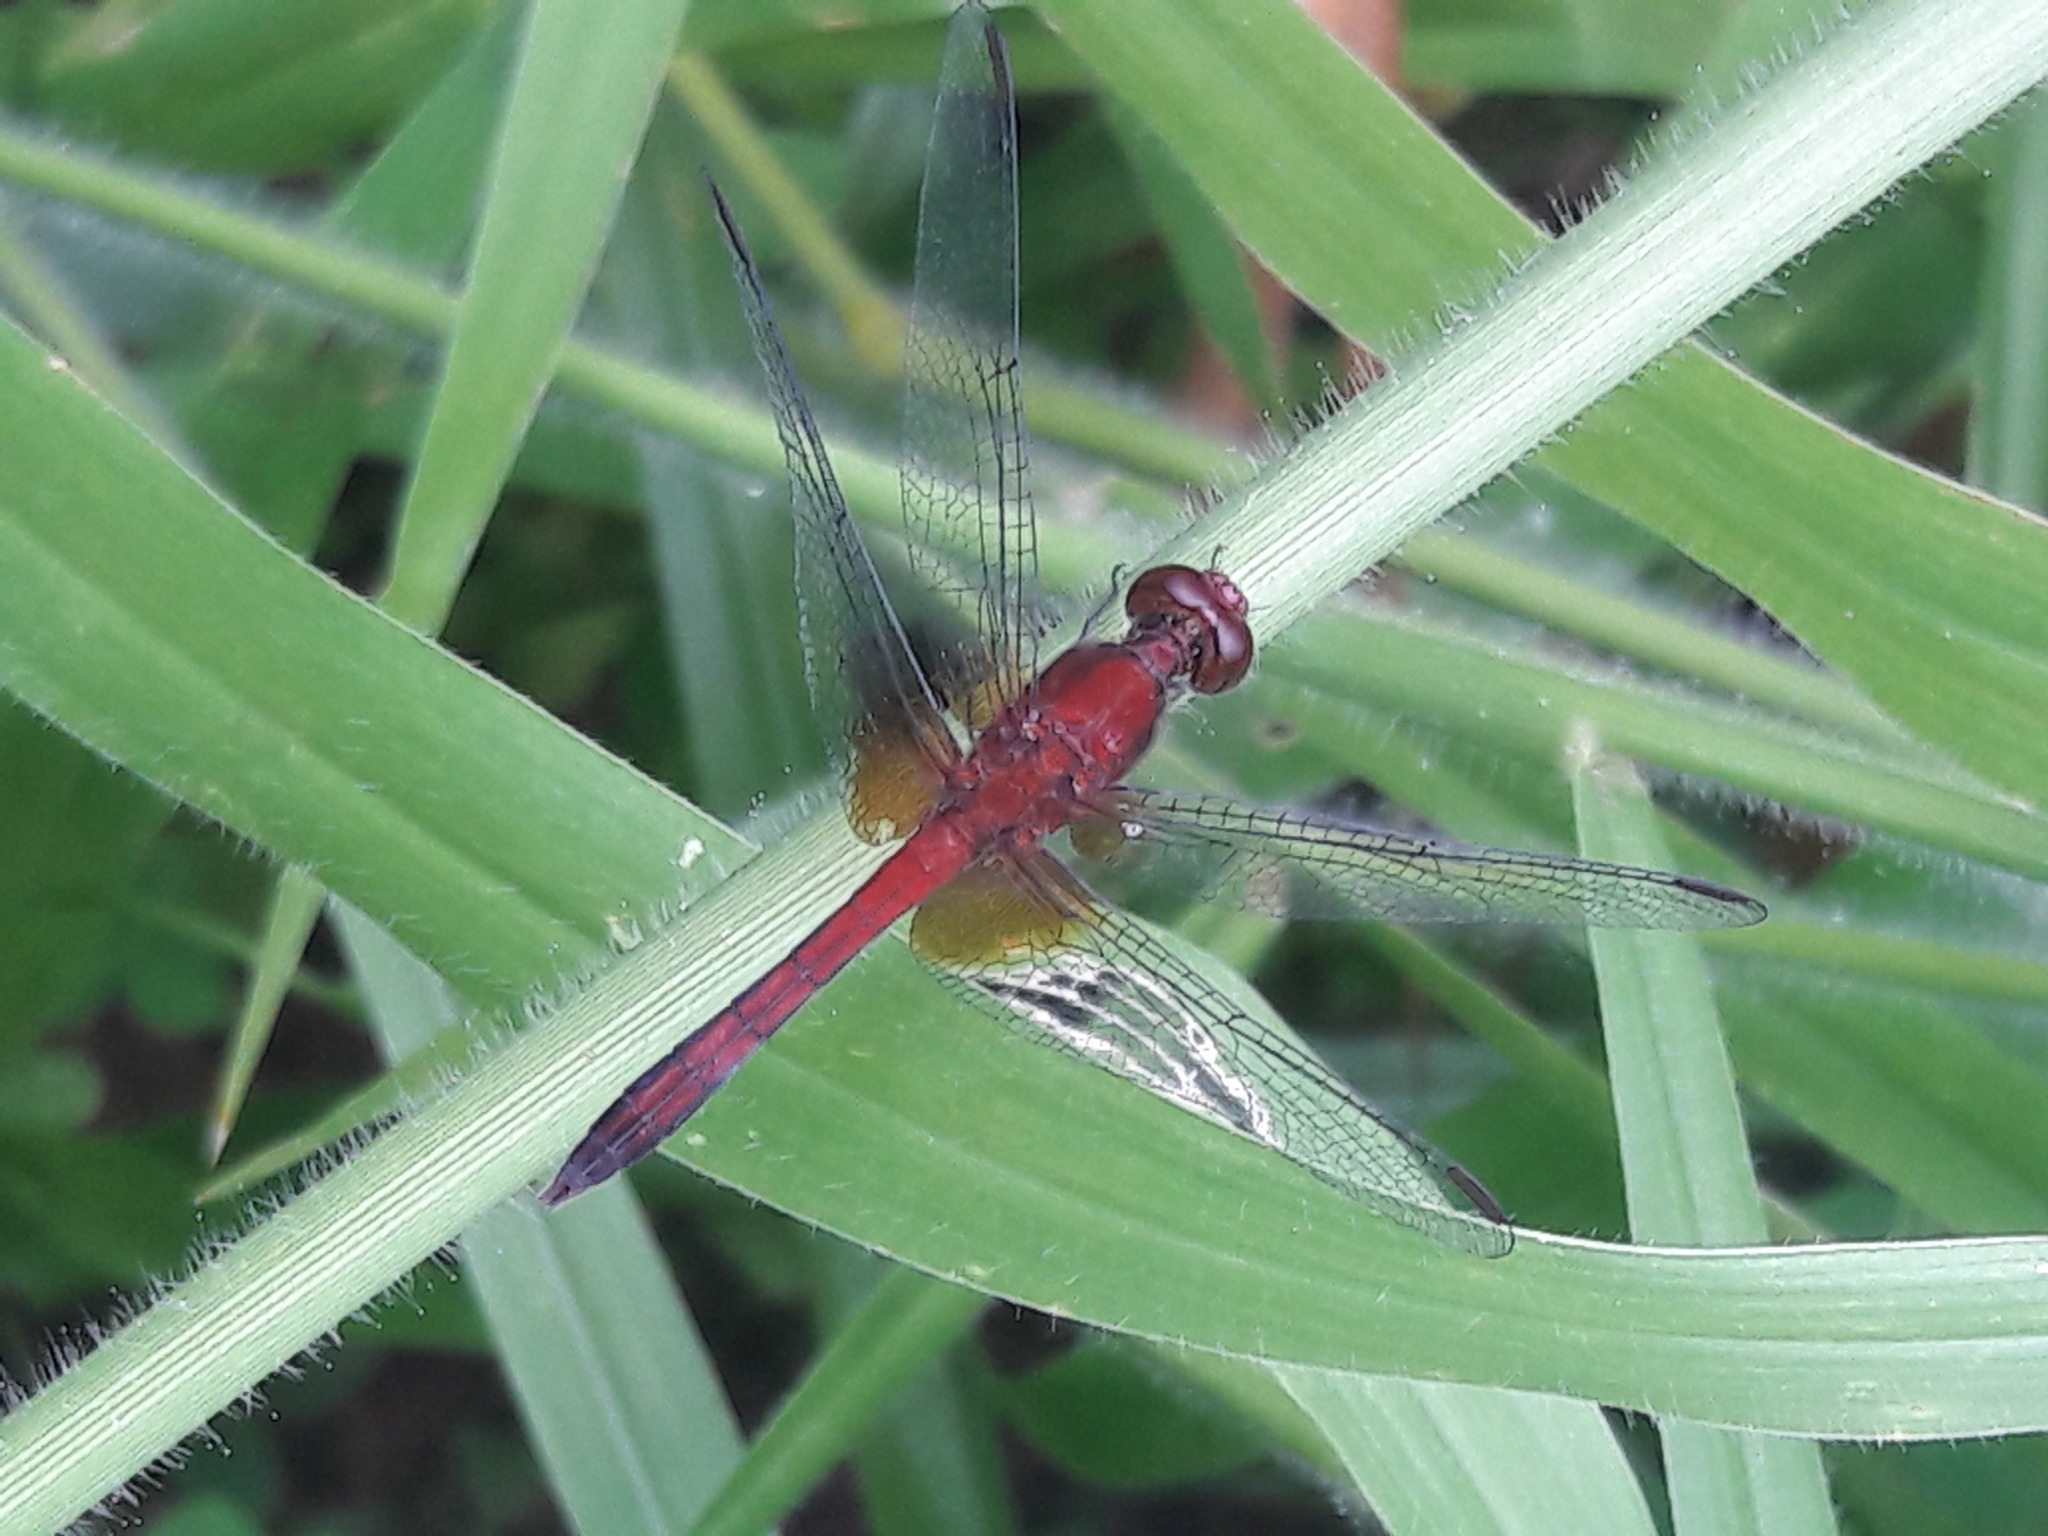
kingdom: Animalia
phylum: Arthropoda
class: Insecta
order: Odonata
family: Libellulidae
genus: Erythrodiplax
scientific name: Erythrodiplax fusca
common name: Red-faced dragonlet
